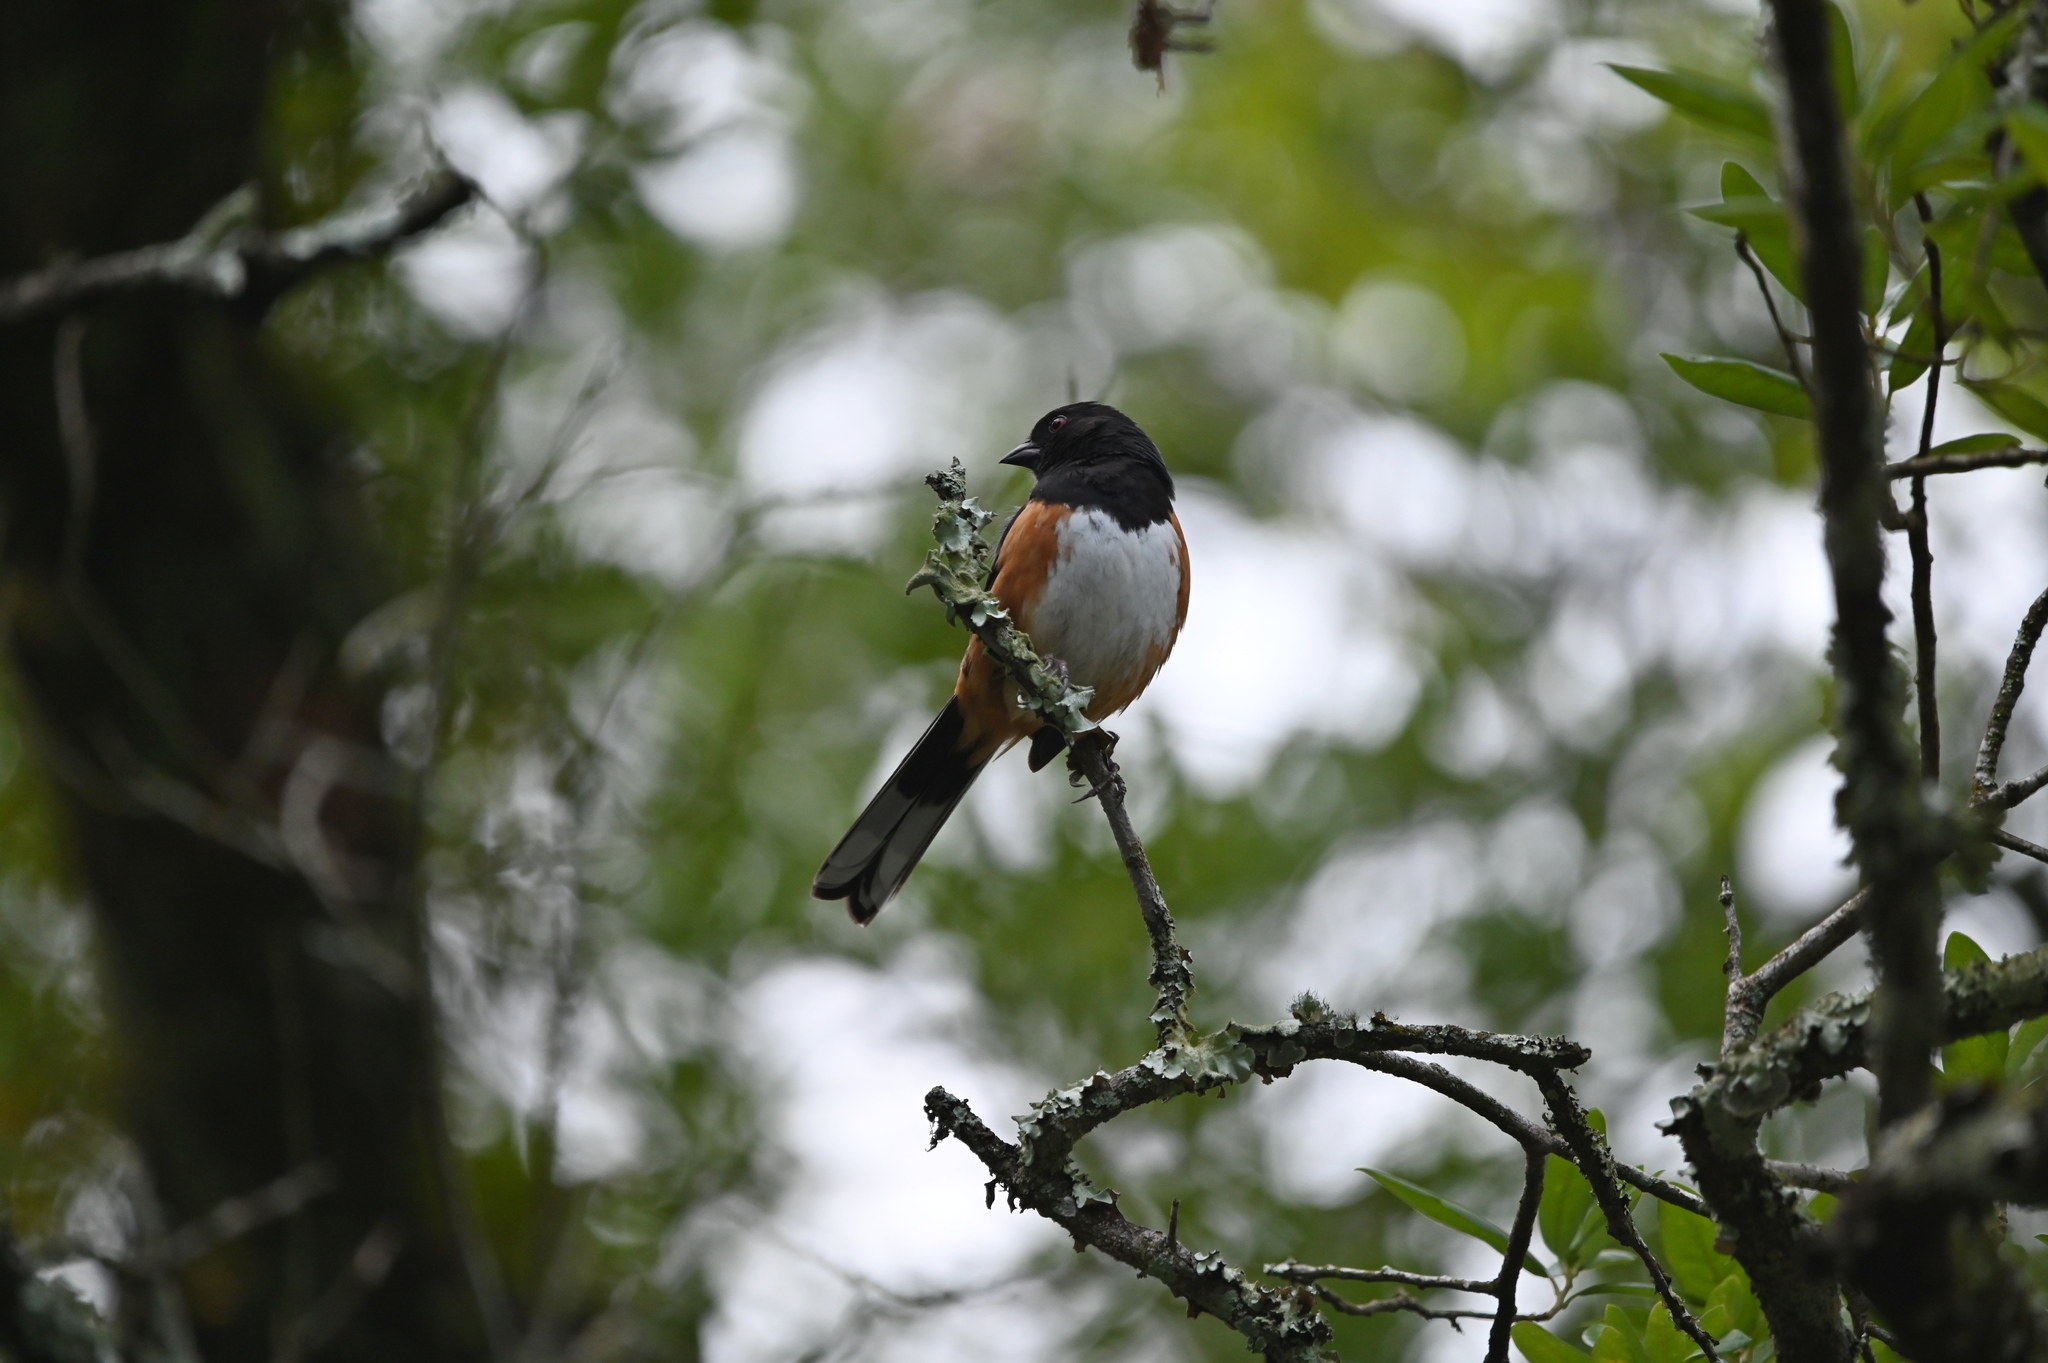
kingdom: Animalia
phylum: Chordata
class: Aves
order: Passeriformes
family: Passerellidae
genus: Pipilo
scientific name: Pipilo erythrophthalmus
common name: Eastern towhee
